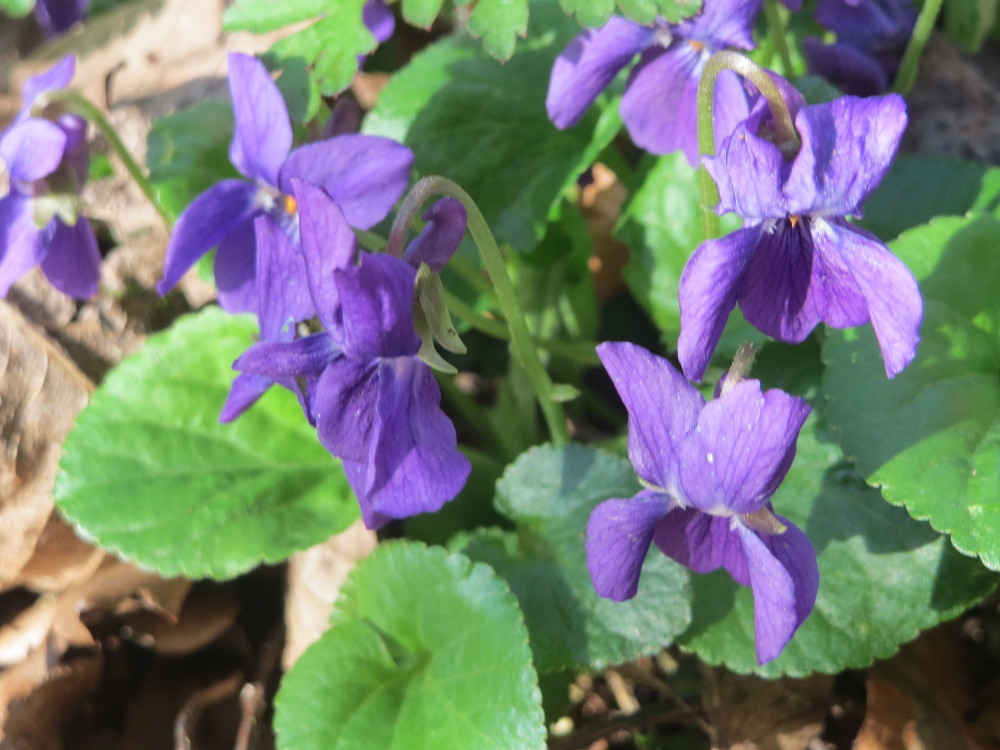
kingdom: Plantae
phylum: Tracheophyta
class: Magnoliopsida
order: Malpighiales
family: Violaceae
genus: Viola
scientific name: Viola odorata
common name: Sweet violet
